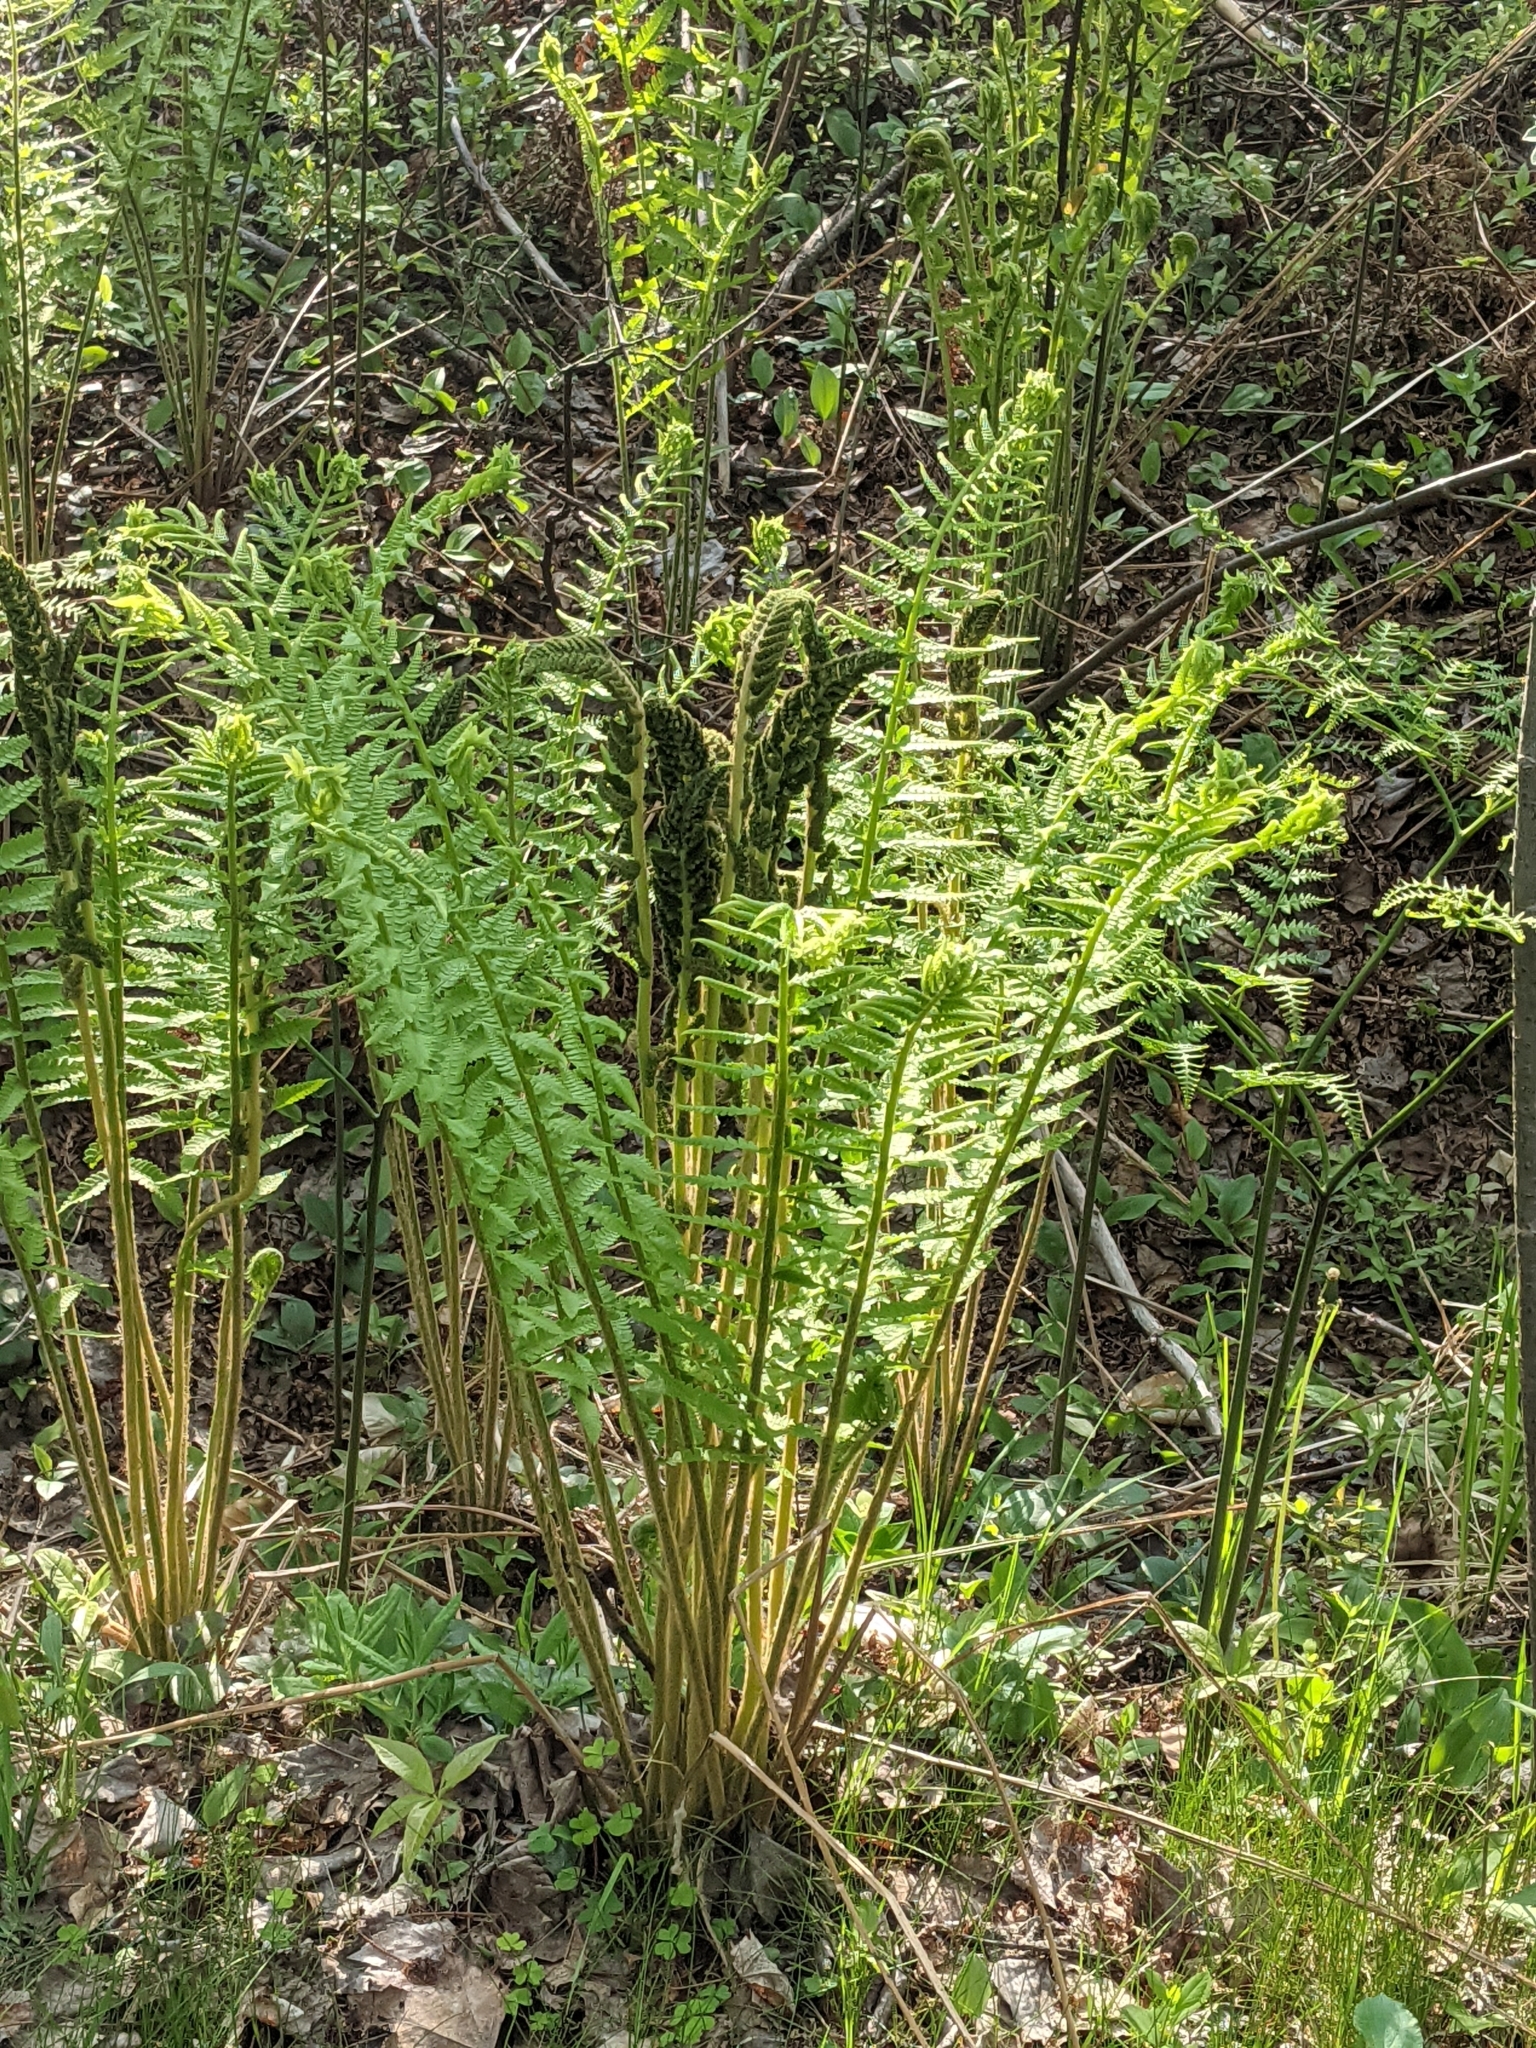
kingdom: Plantae
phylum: Tracheophyta
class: Polypodiopsida
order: Osmundales
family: Osmundaceae
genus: Osmundastrum
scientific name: Osmundastrum cinnamomeum
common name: Cinnamon fern
